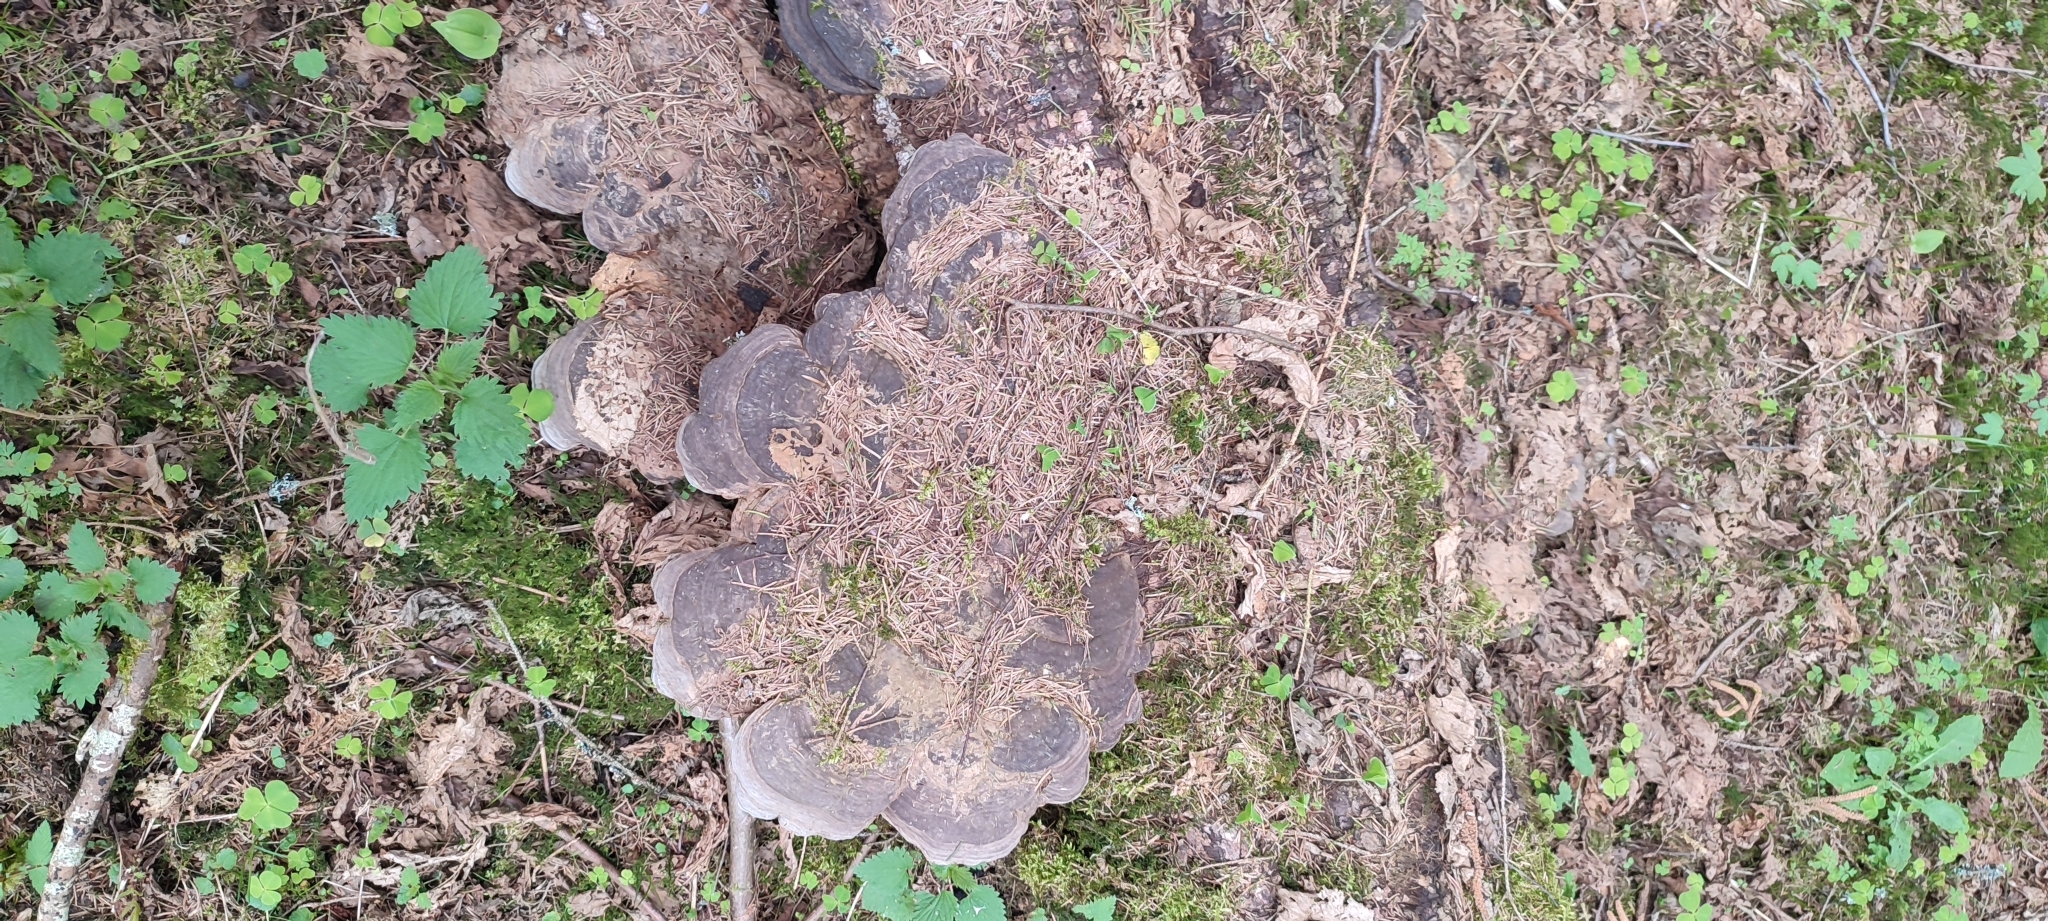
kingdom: Fungi
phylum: Basidiomycota
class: Agaricomycetes
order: Polyporales
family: Polyporaceae
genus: Ganoderma
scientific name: Ganoderma applanatum
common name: Artist's bracket
